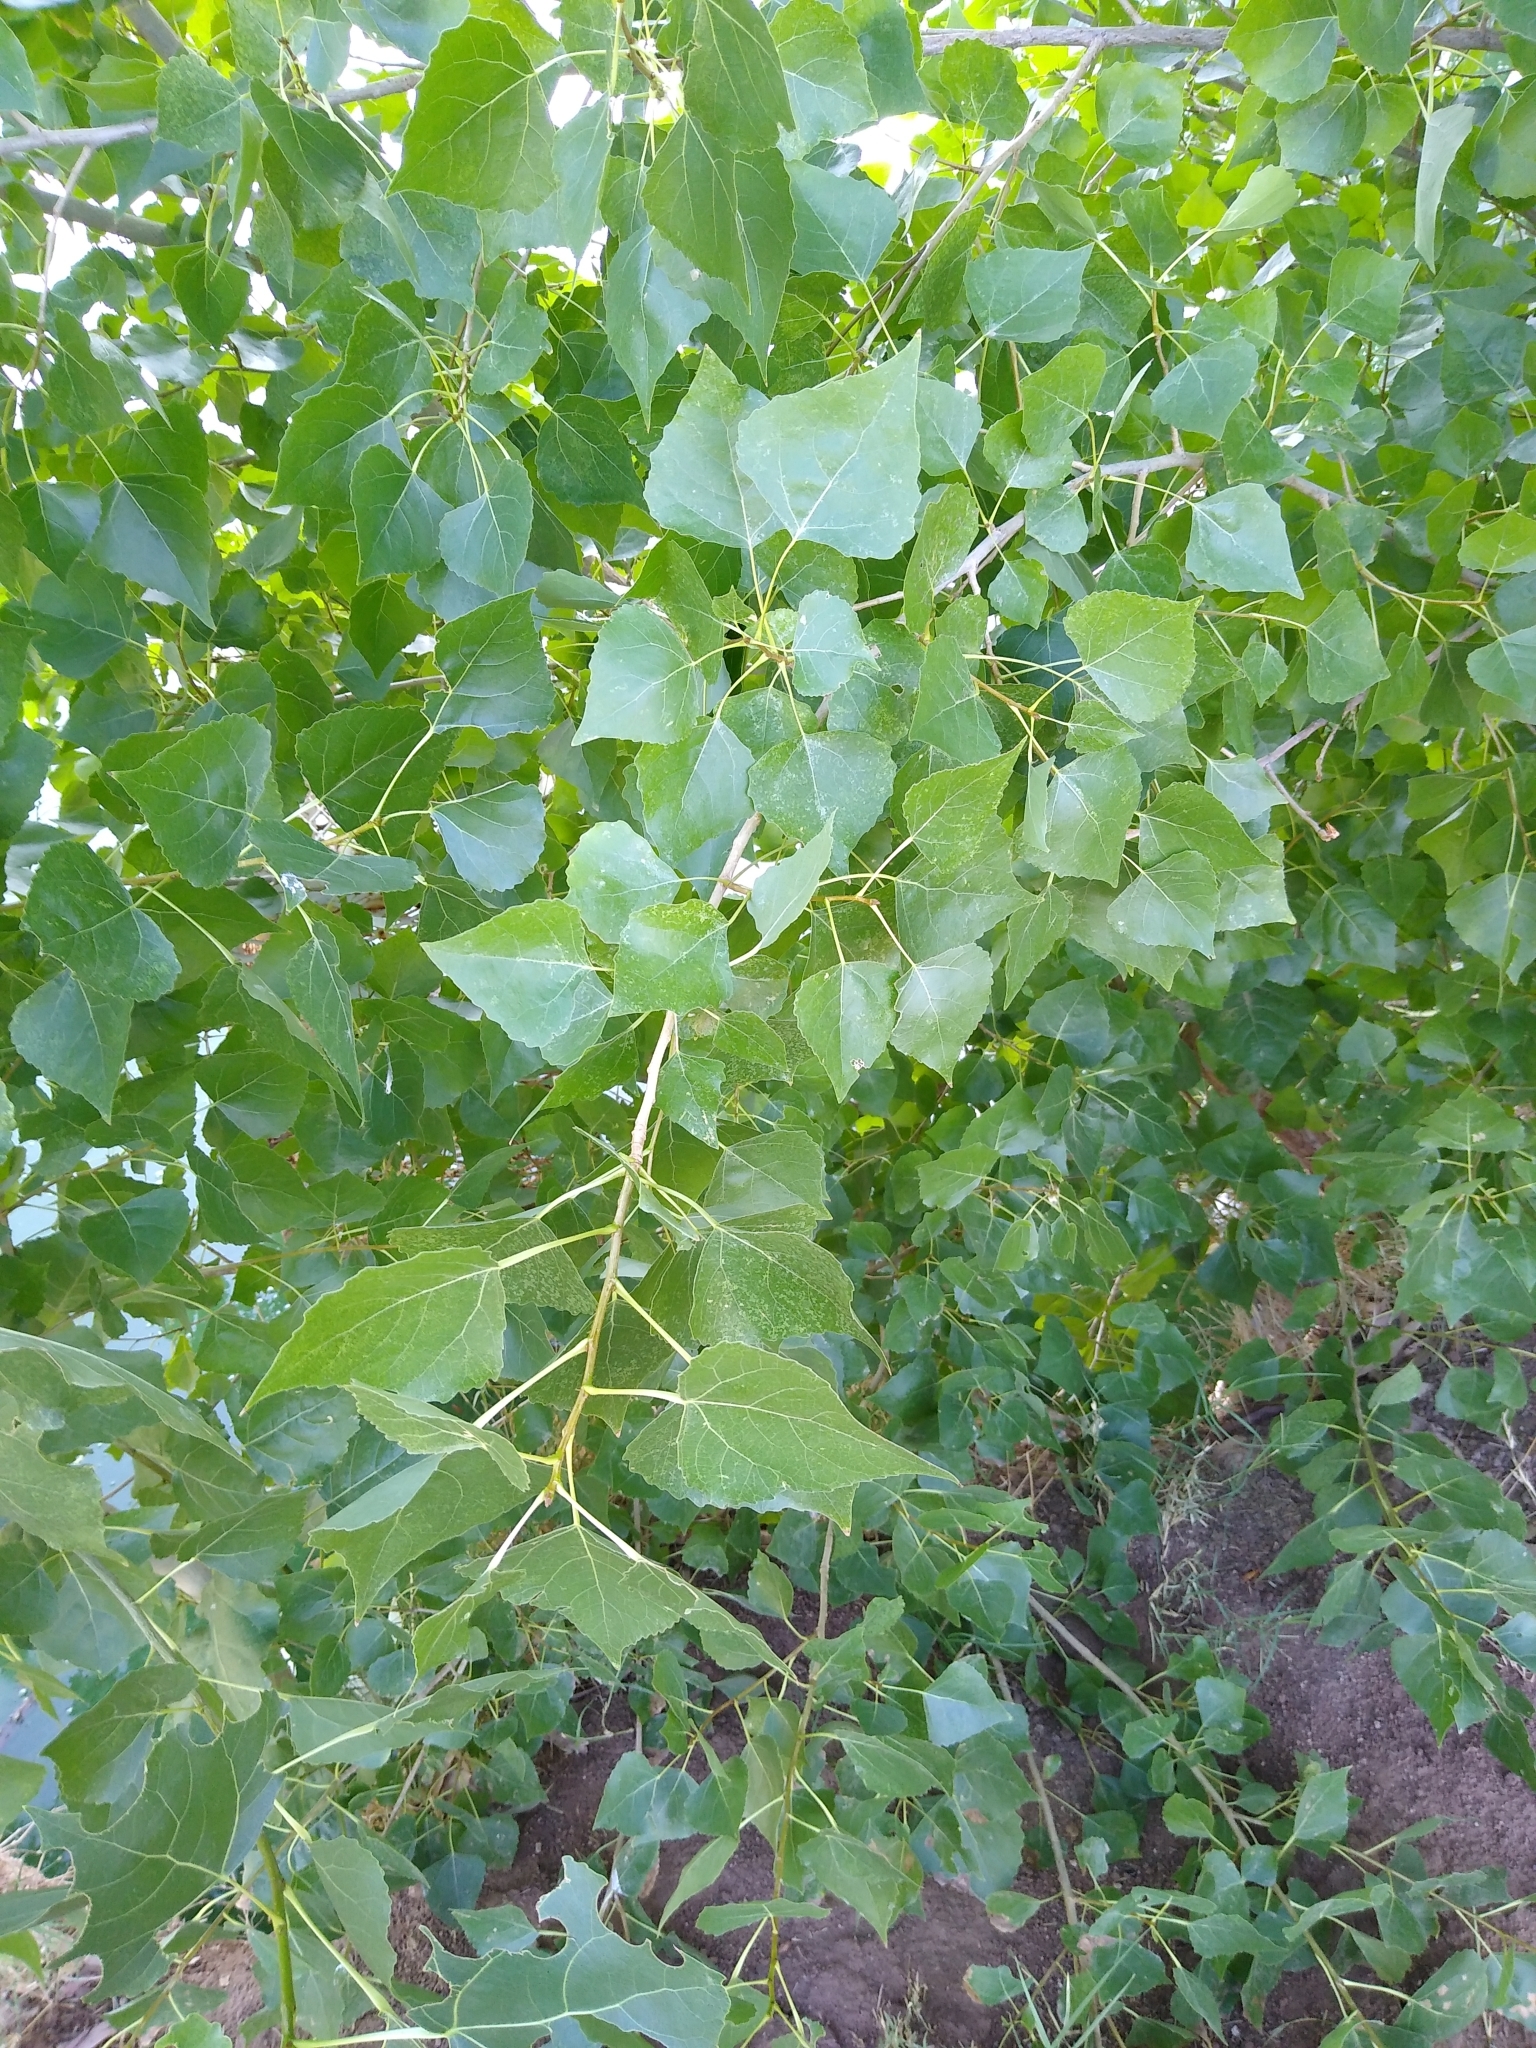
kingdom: Plantae
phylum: Tracheophyta
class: Magnoliopsida
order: Malpighiales
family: Salicaceae
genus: Populus
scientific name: Populus fremontii
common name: Fremont's cottonwood
